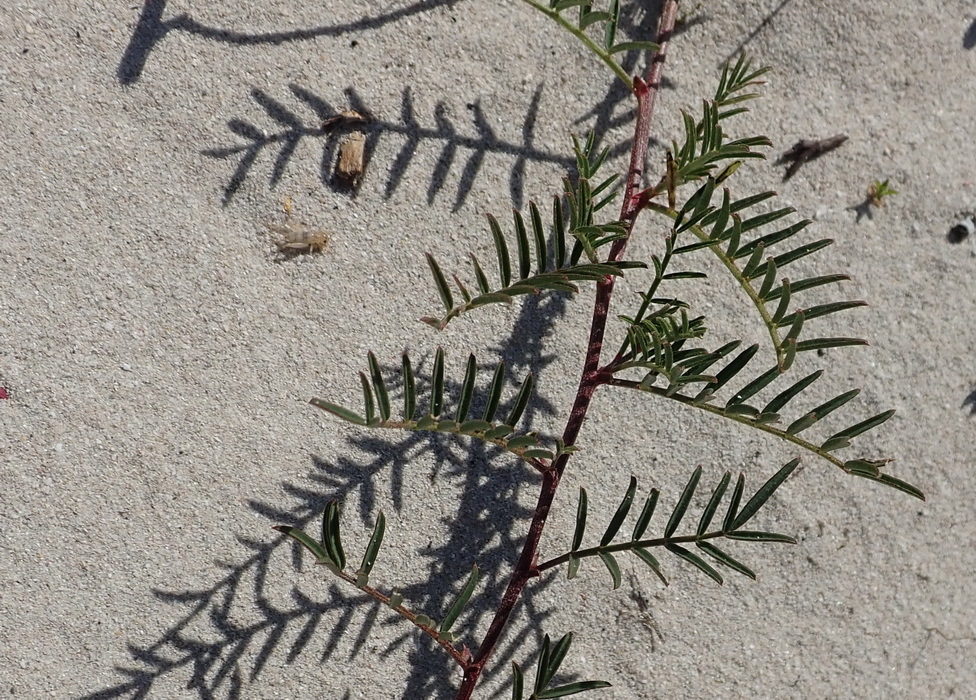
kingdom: Plantae
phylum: Tracheophyta
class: Magnoliopsida
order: Fabales
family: Fabaceae
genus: Lessertia
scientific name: Lessertia miniata
